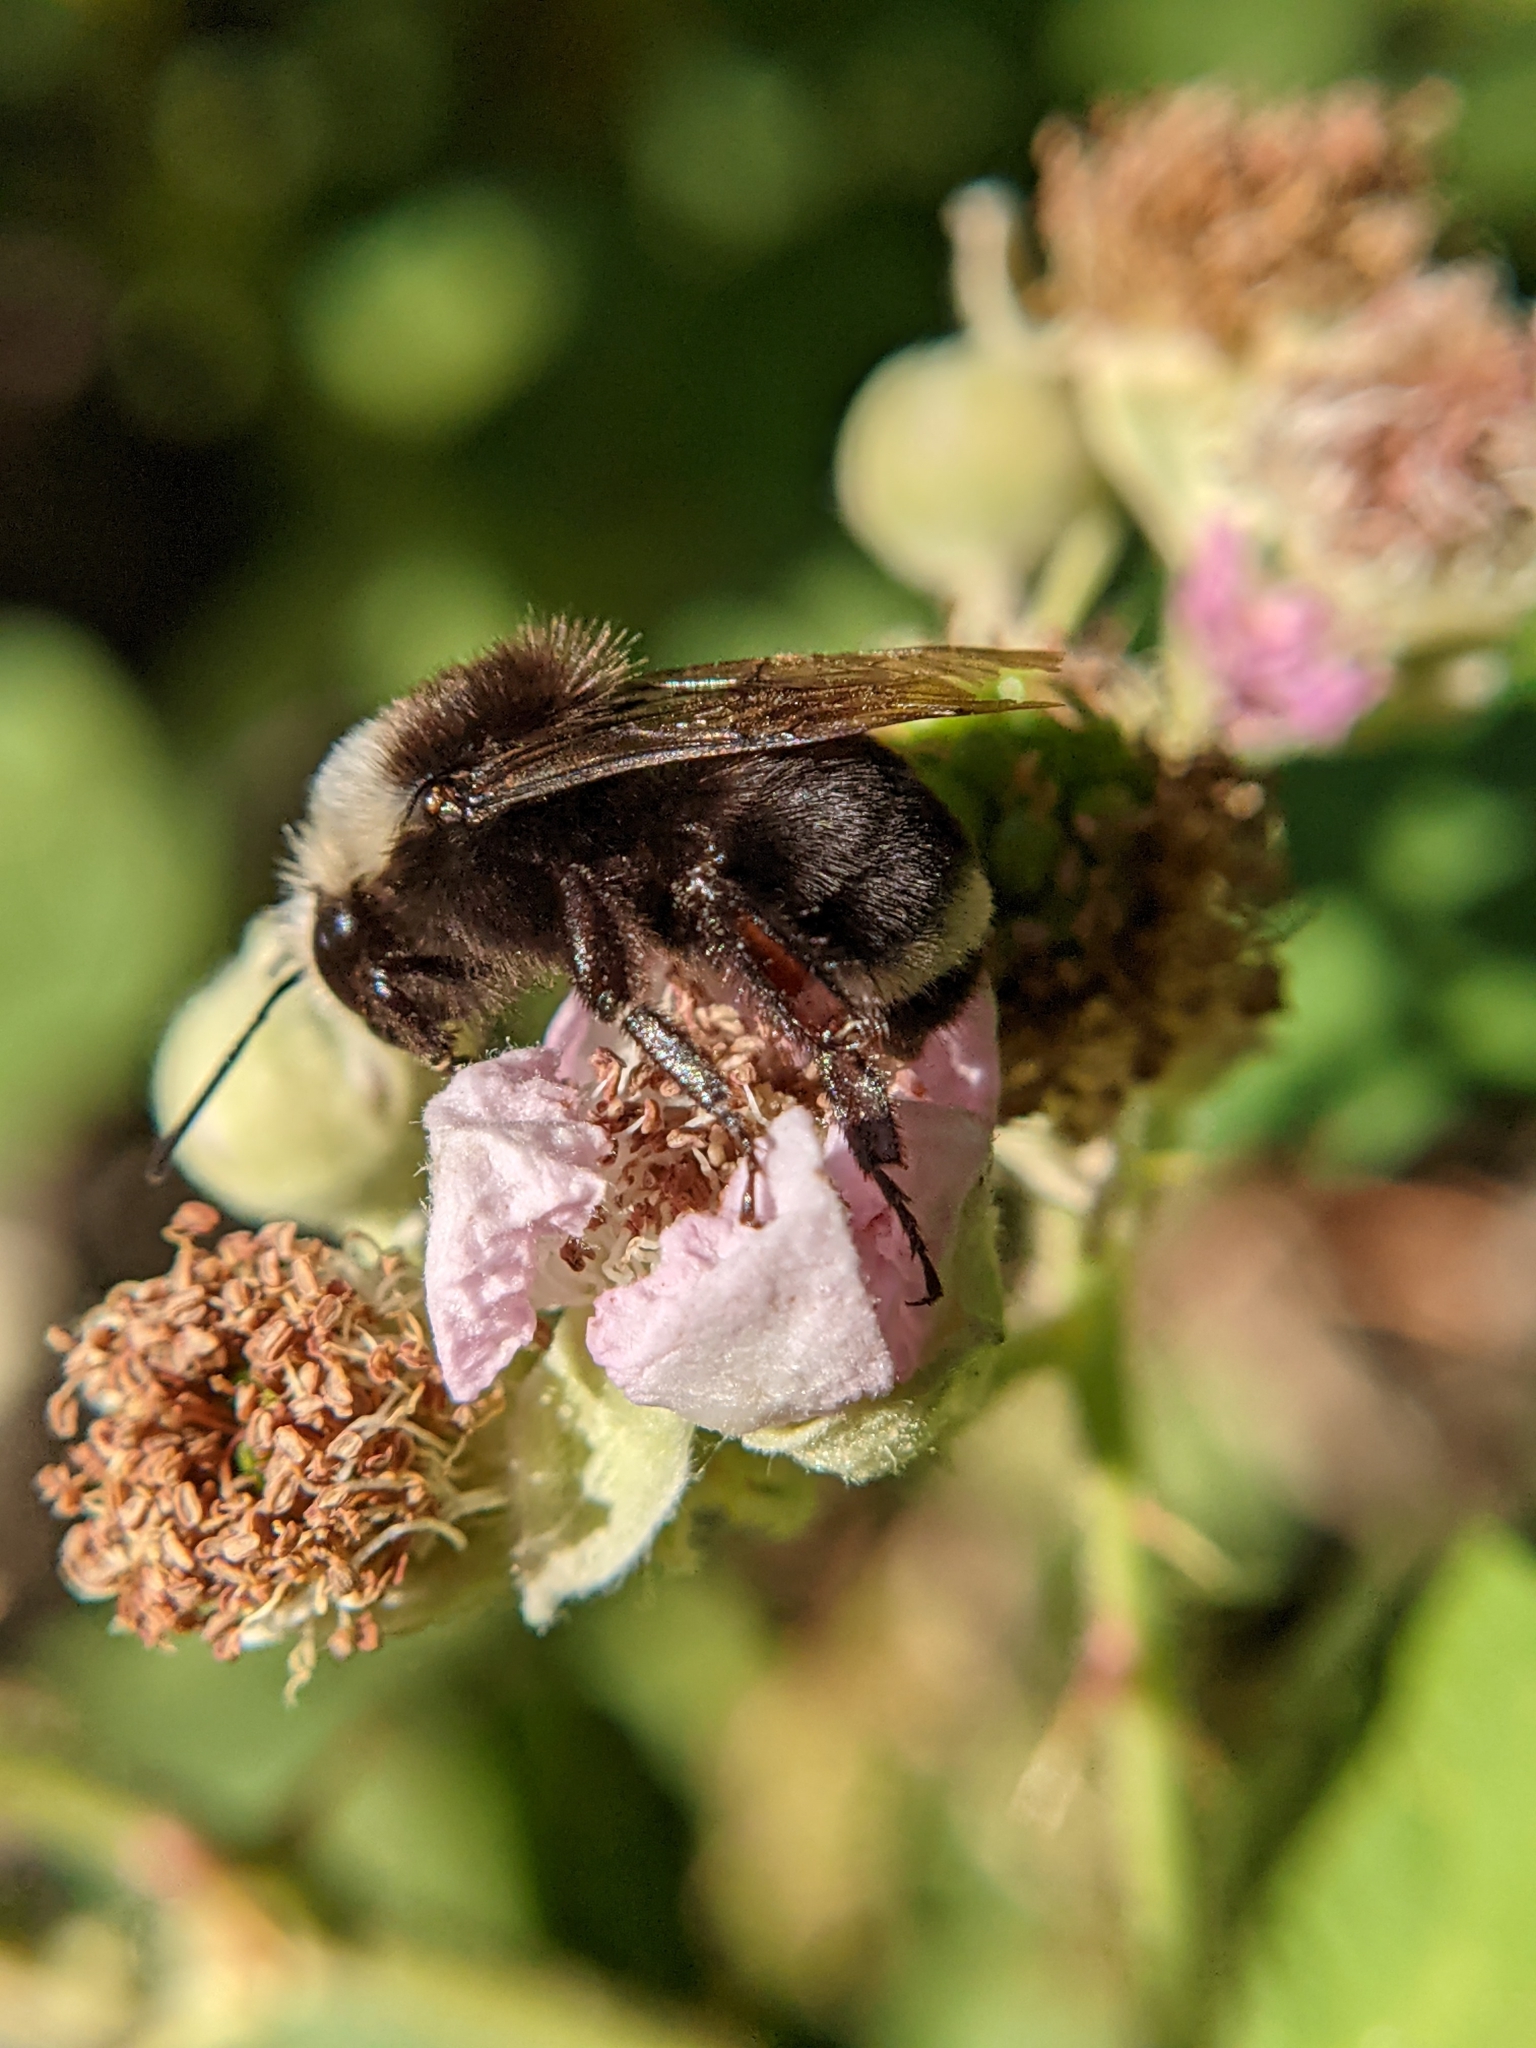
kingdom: Animalia
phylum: Arthropoda
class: Insecta
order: Hymenoptera
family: Apidae
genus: Bombus
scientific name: Bombus vosnesenskii
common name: Vosnesensky bumble bee
